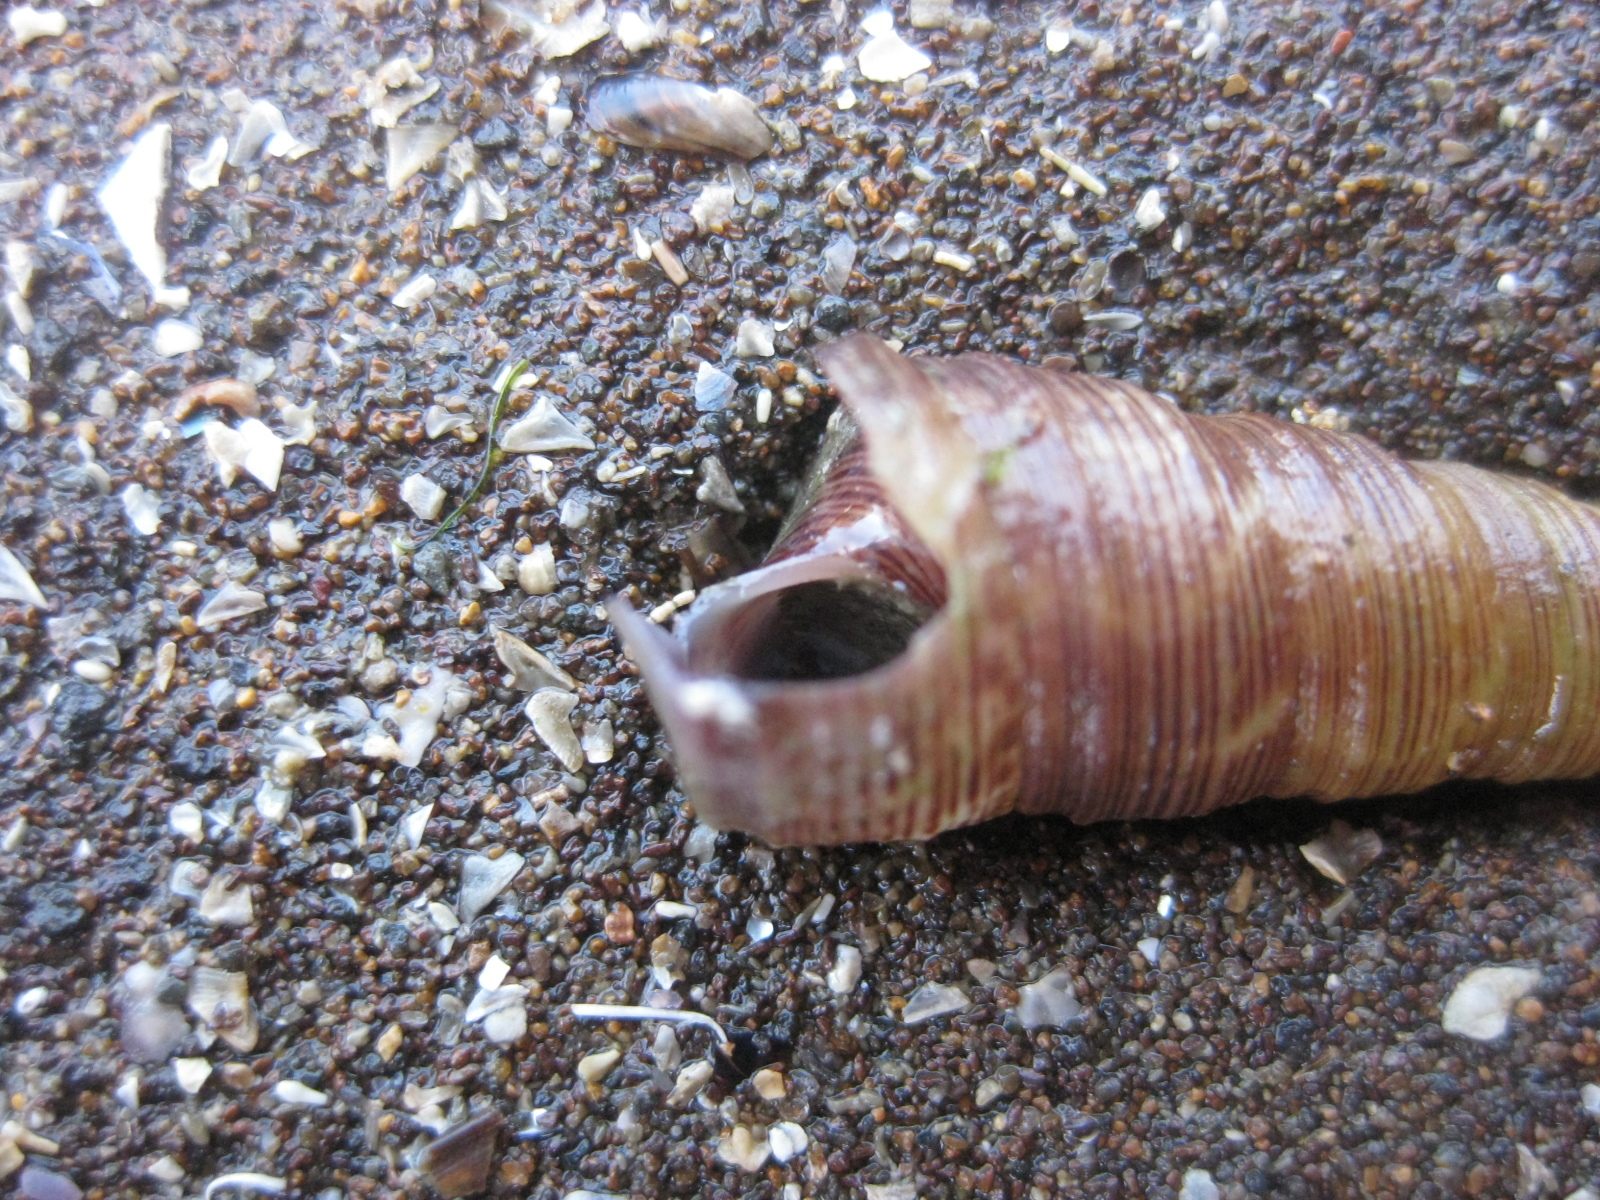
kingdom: Animalia
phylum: Mollusca
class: Gastropoda
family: Turritellidae
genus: Maoricolpus
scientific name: Maoricolpus roseus
